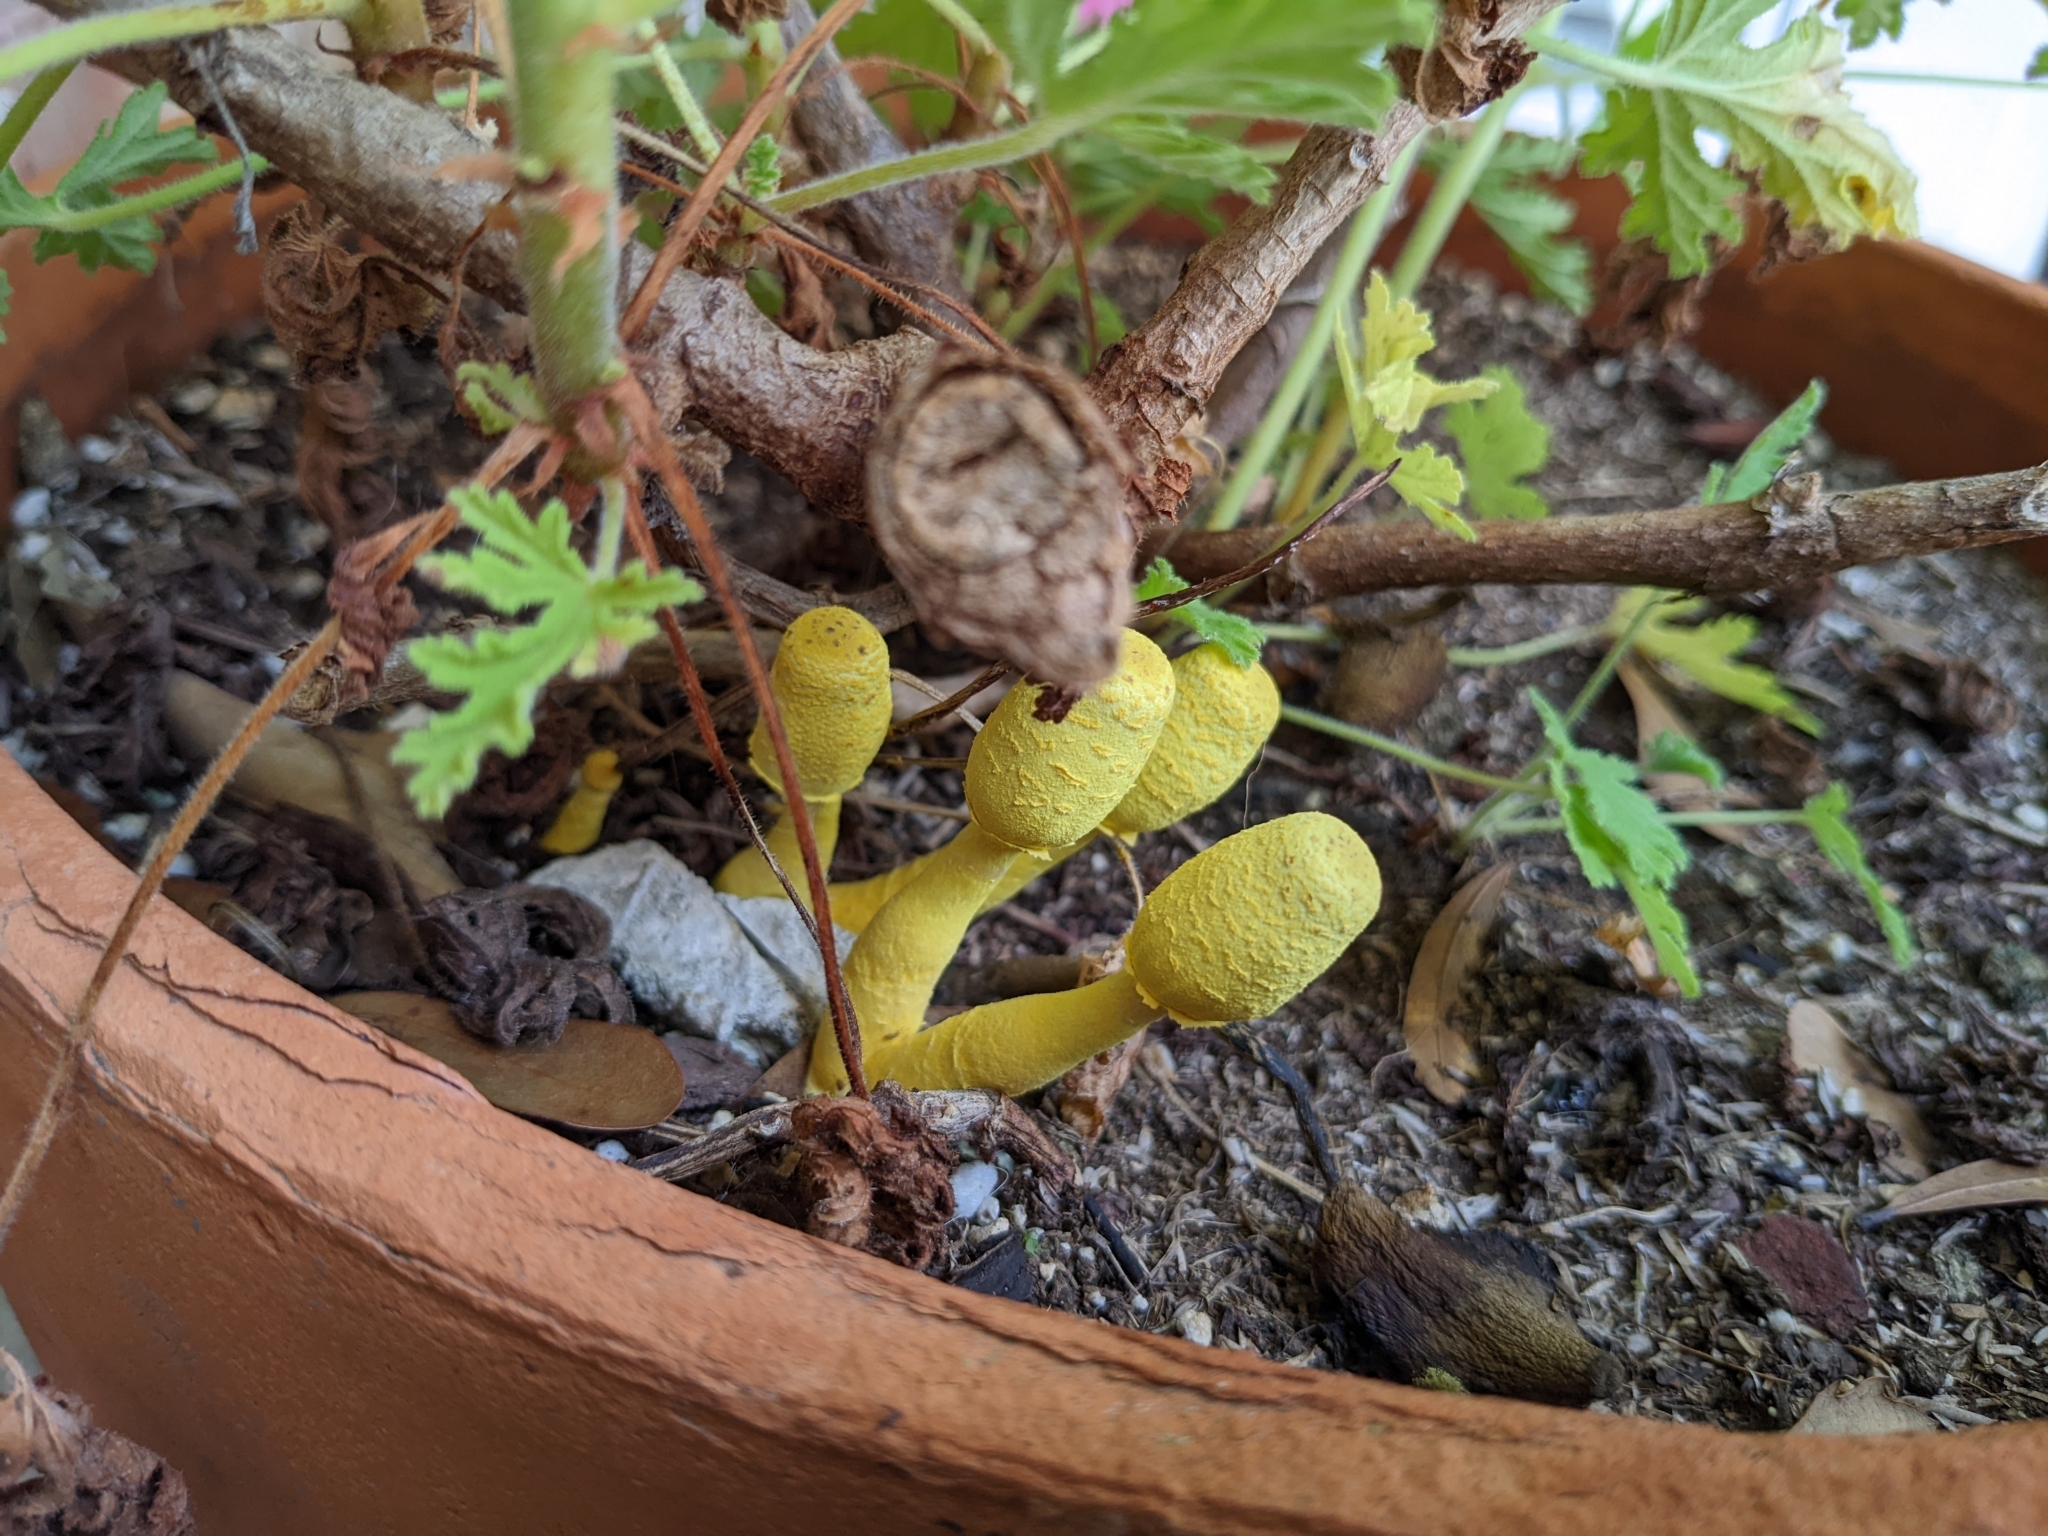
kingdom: Fungi
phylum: Basidiomycota
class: Agaricomycetes
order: Agaricales
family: Agaricaceae
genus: Leucocoprinus
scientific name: Leucocoprinus birnbaumii
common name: Plantpot dapperling
